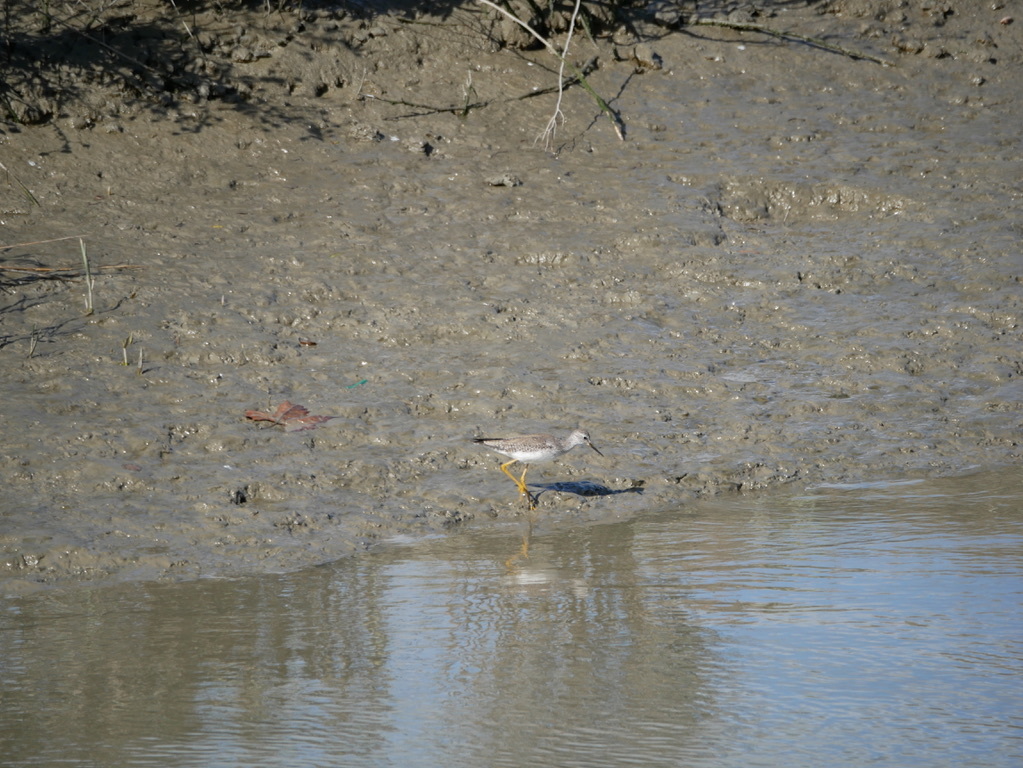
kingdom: Animalia
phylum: Chordata
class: Aves
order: Charadriiformes
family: Scolopacidae
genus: Tringa
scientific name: Tringa flavipes
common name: Lesser yellowlegs
